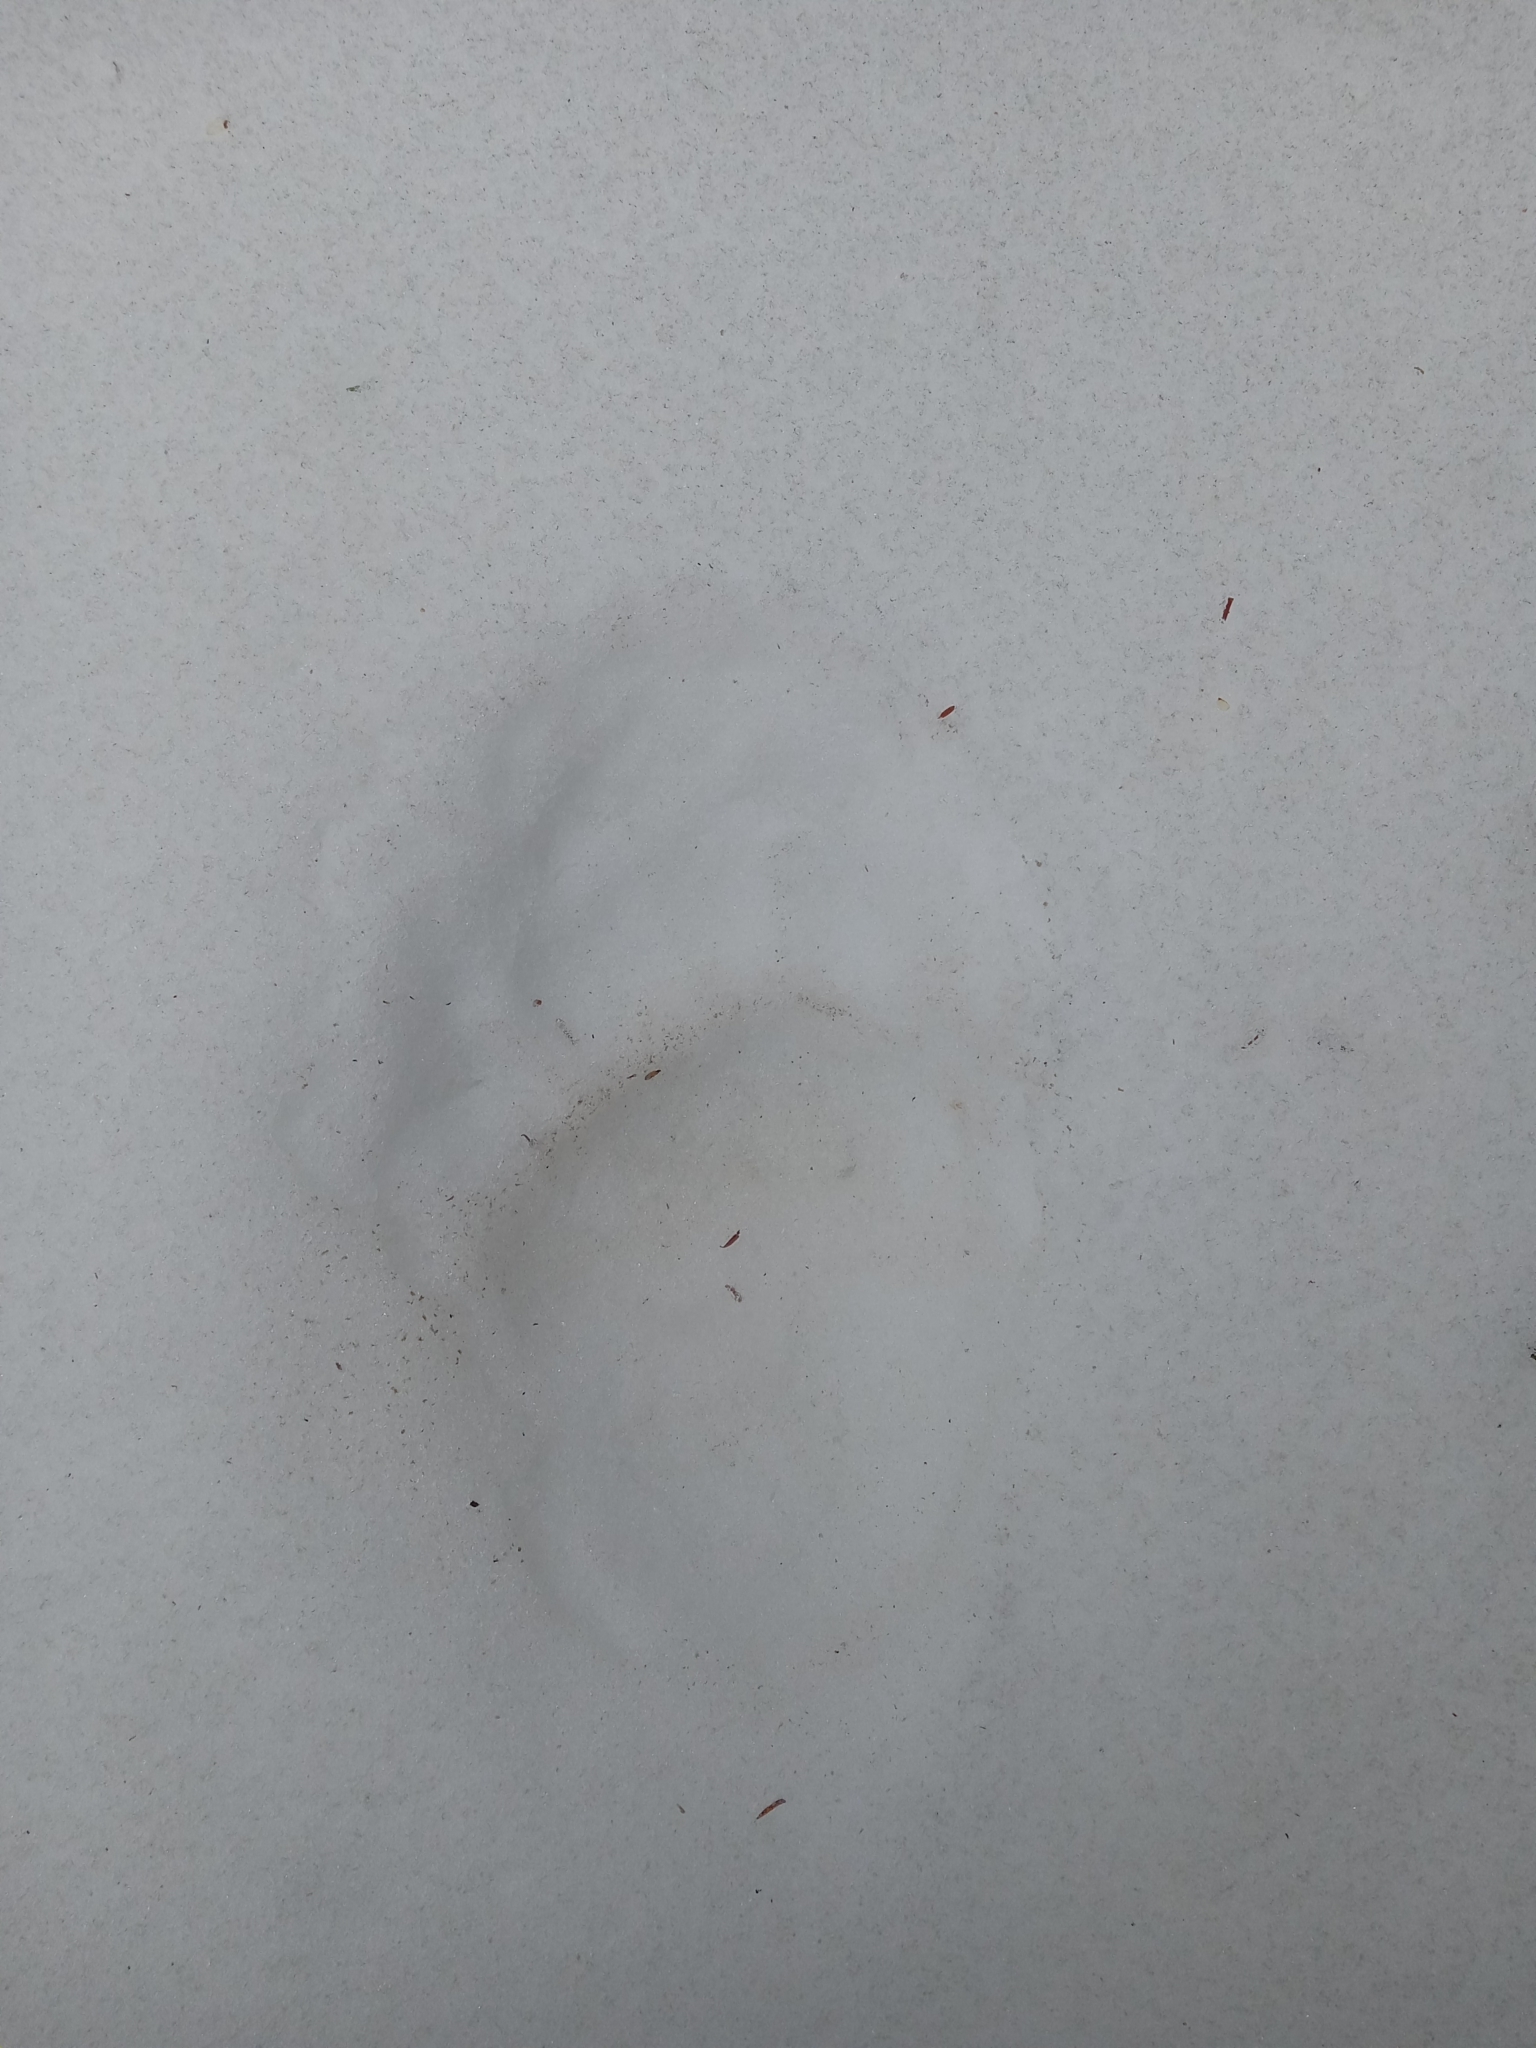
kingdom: Animalia
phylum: Chordata
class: Mammalia
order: Carnivora
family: Ursidae
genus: Ursus
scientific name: Ursus americanus
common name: American black bear
